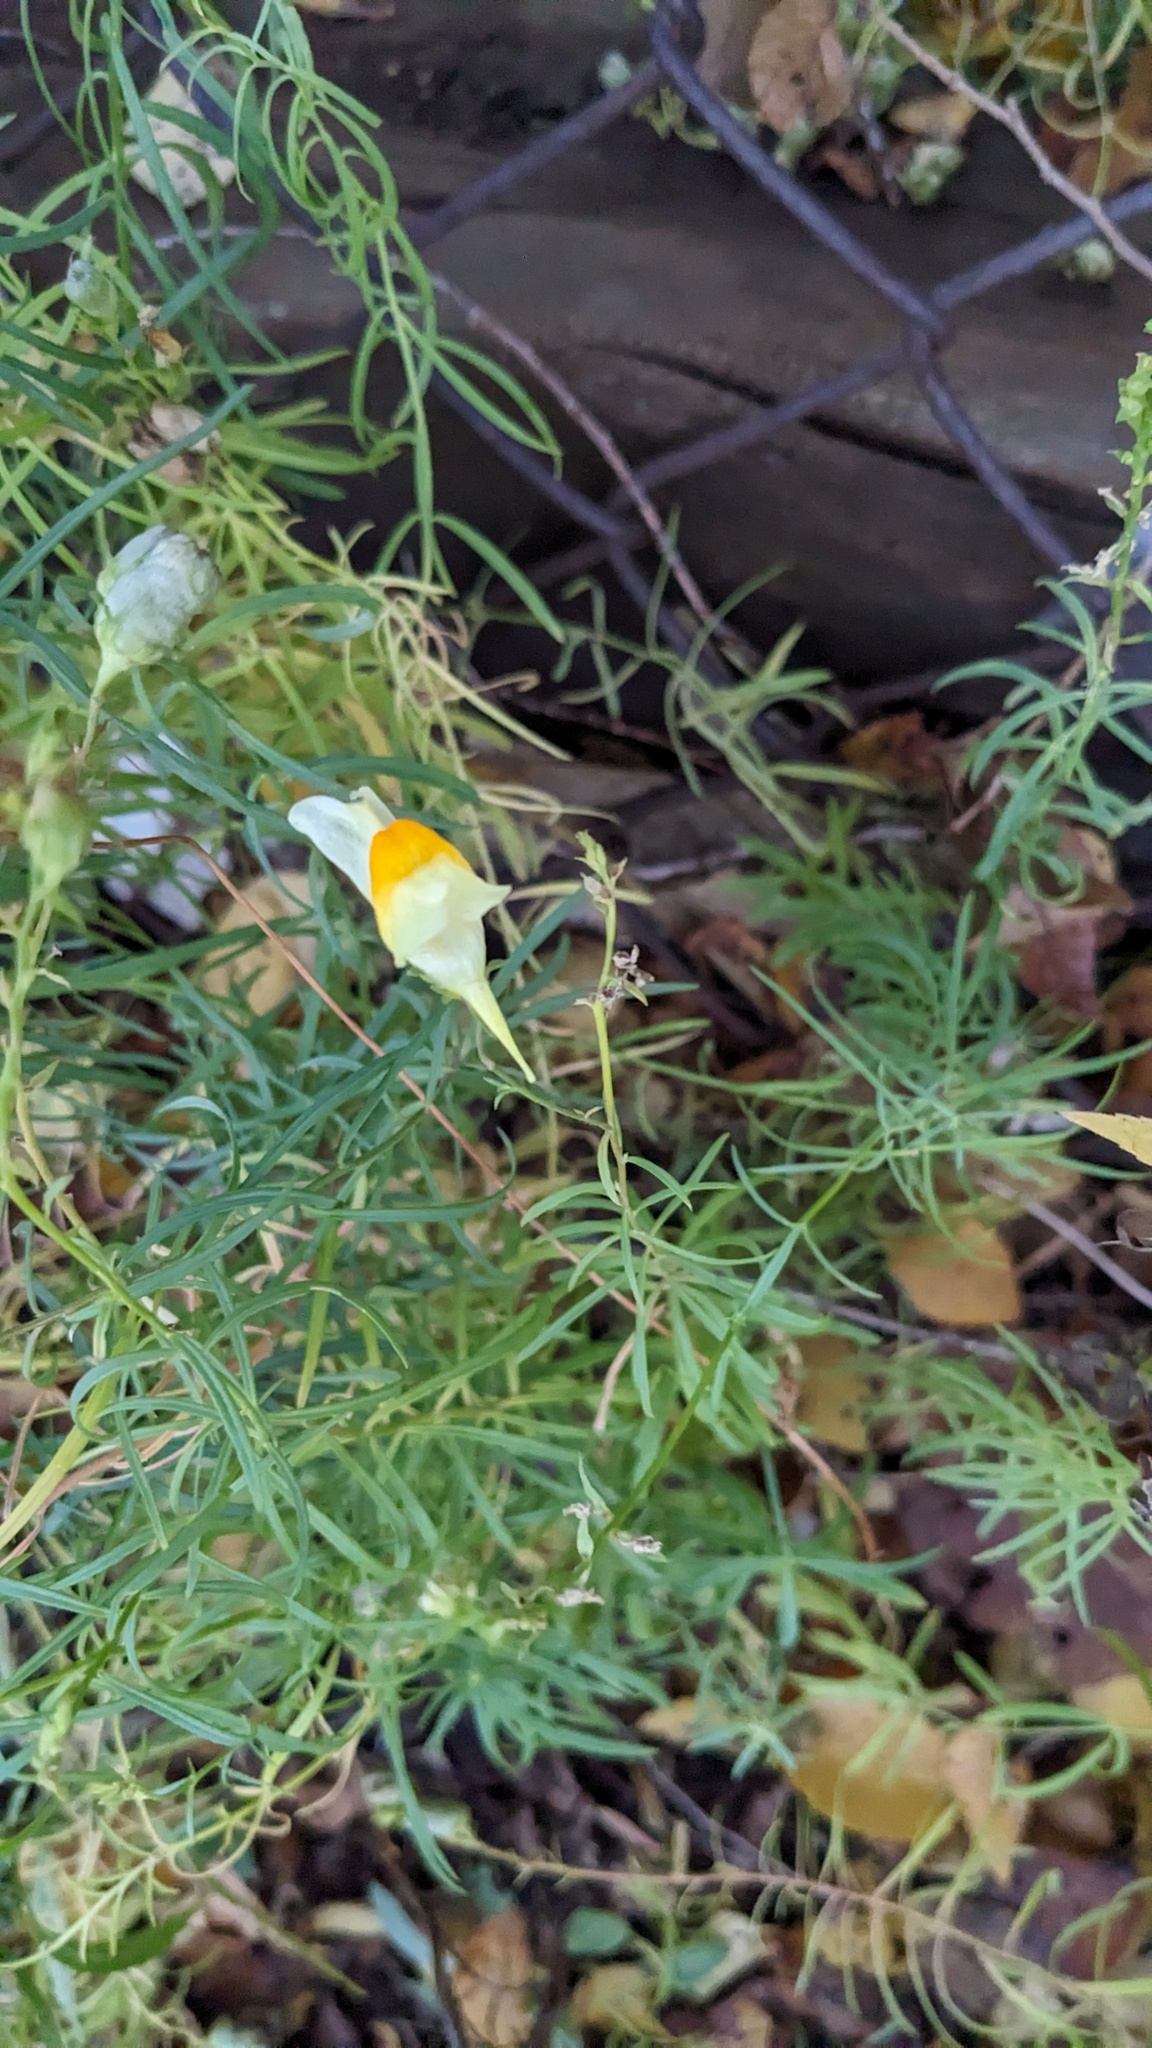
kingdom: Plantae
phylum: Tracheophyta
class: Magnoliopsida
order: Lamiales
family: Plantaginaceae
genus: Linaria
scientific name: Linaria vulgaris
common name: Butter and eggs
